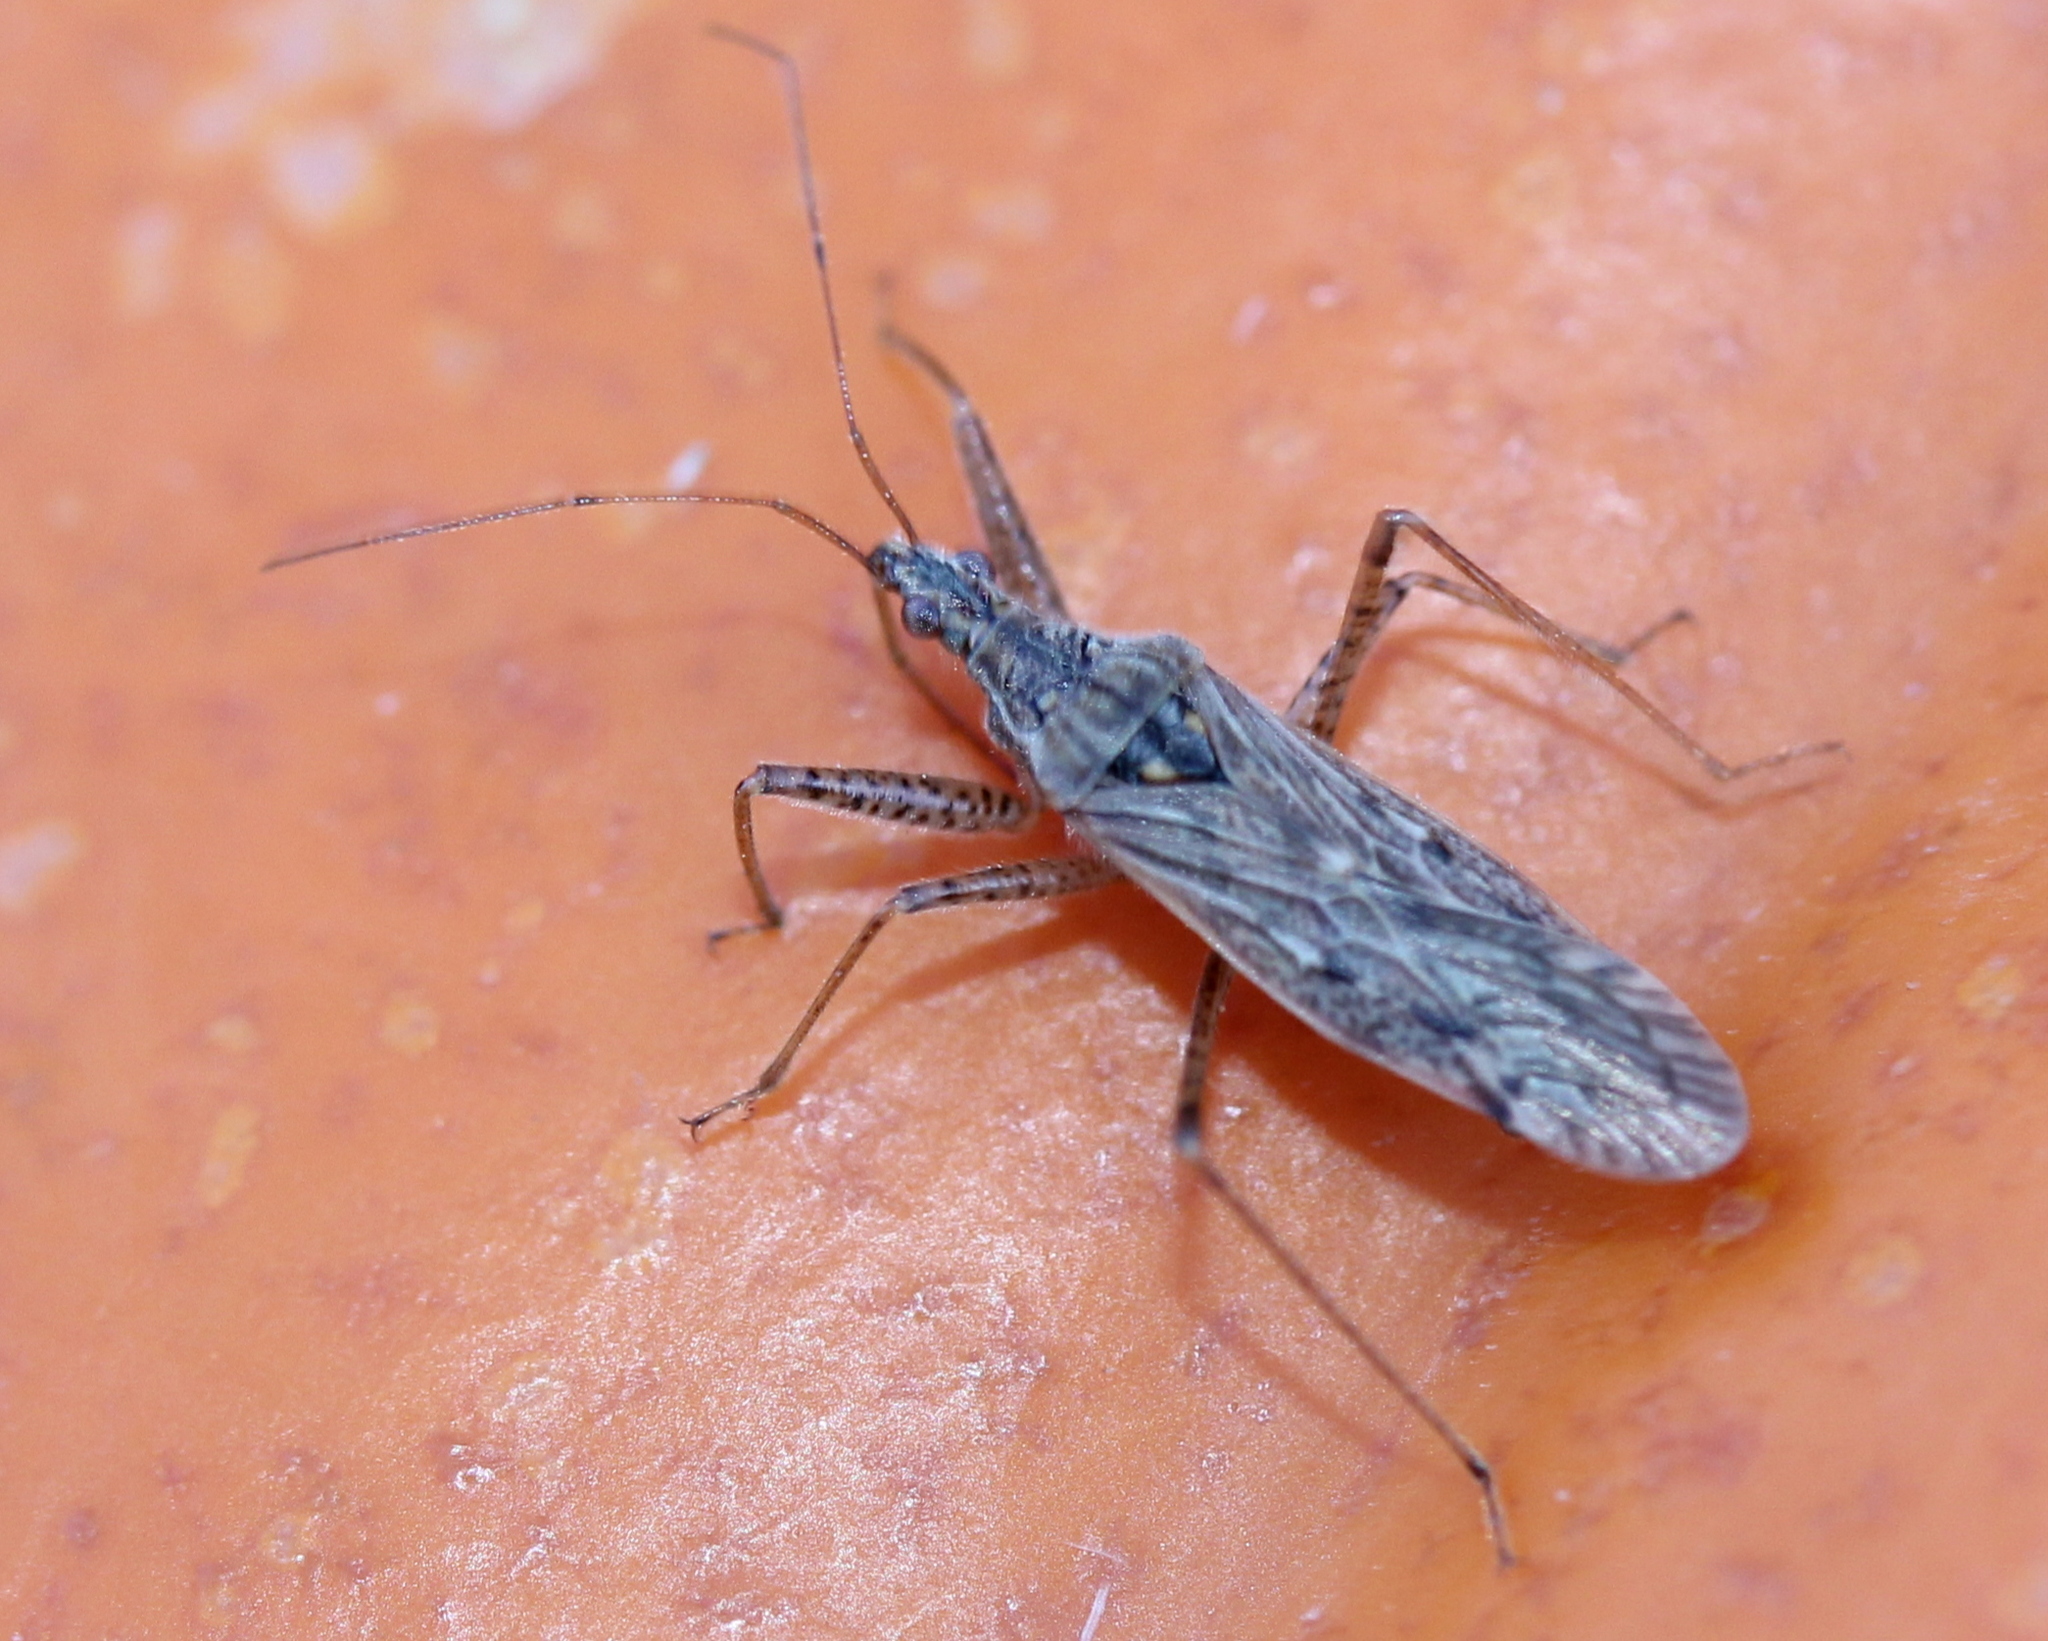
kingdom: Animalia
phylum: Arthropoda
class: Insecta
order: Hemiptera
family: Nabidae
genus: Nabis
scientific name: Nabis roseipennis
